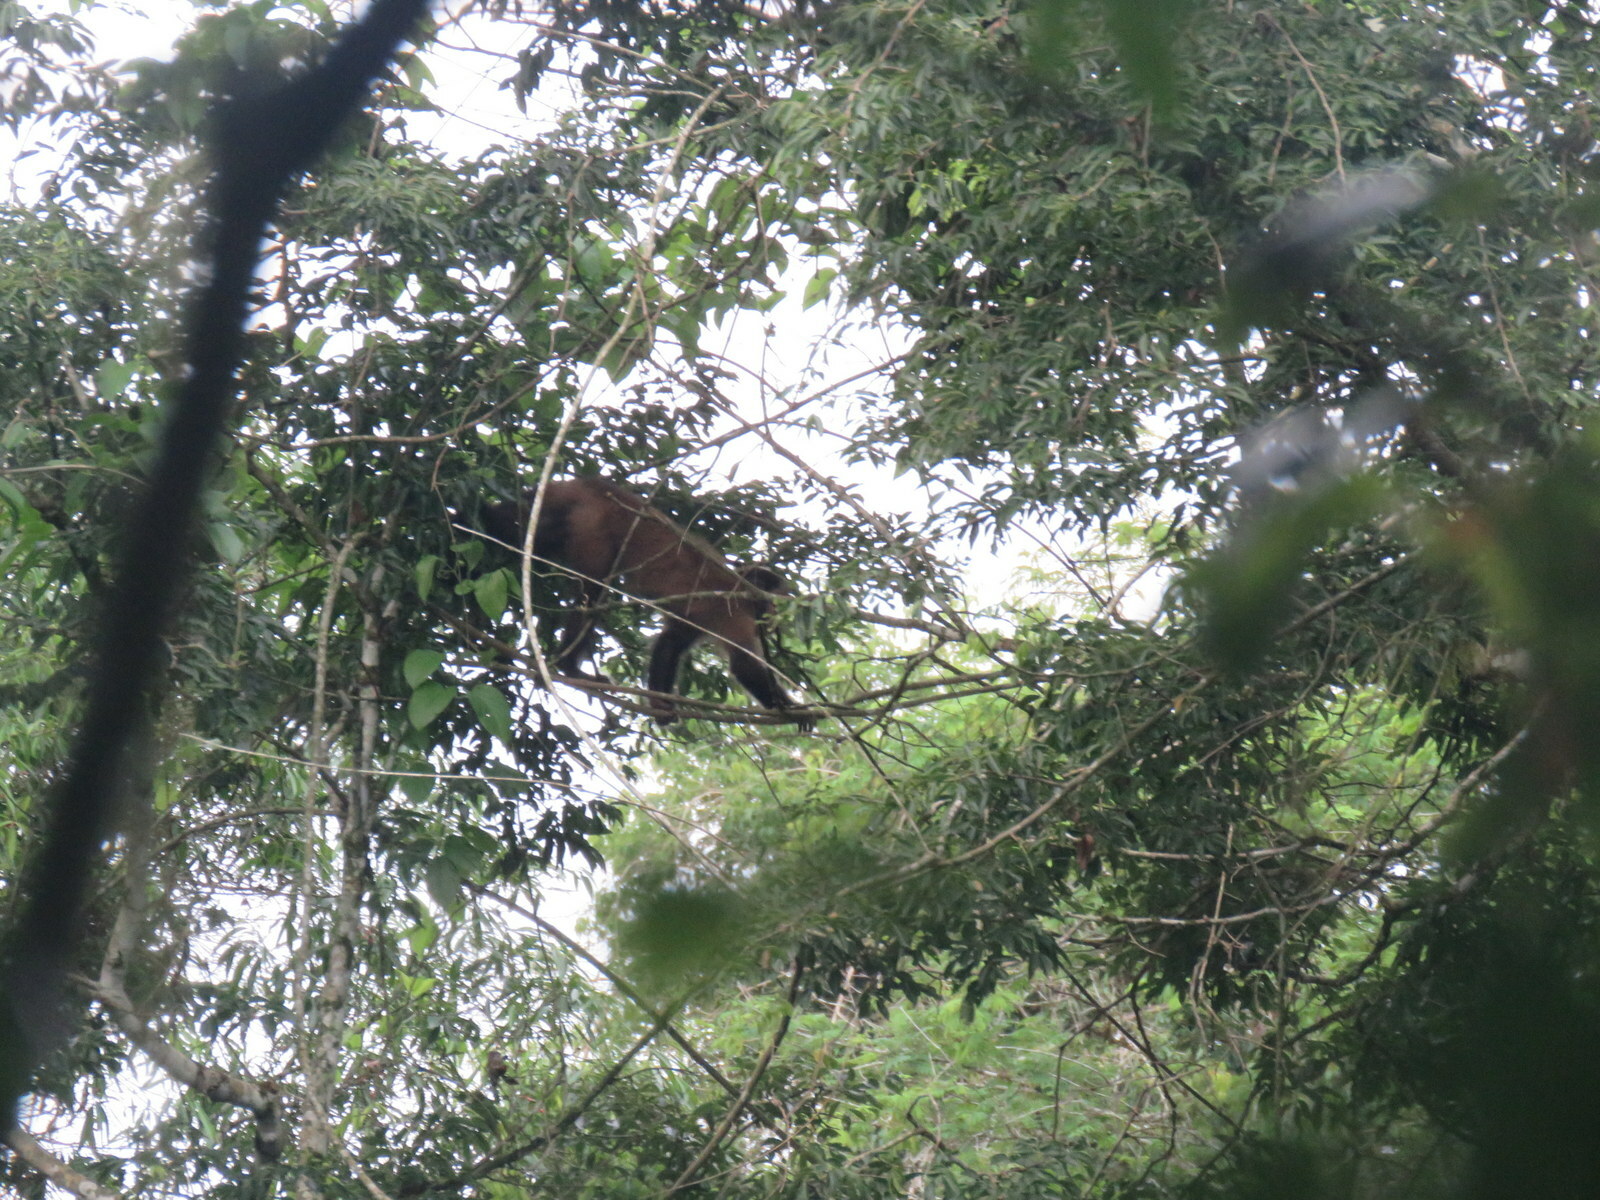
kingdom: Animalia
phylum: Chordata
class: Mammalia
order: Primates
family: Cebidae
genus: Sapajus
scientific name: Sapajus nigritus
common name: Black capuchin
